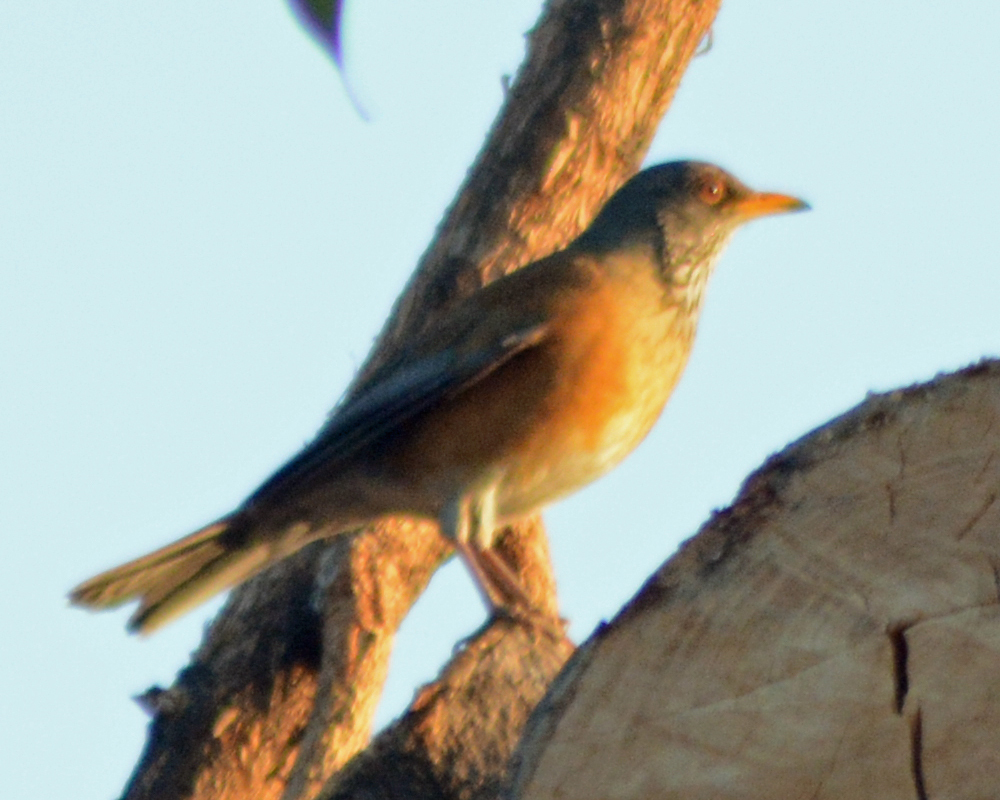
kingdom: Animalia
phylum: Chordata
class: Aves
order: Passeriformes
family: Turdidae
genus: Turdus
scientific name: Turdus rufopalliatus
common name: Rufous-backed robin
